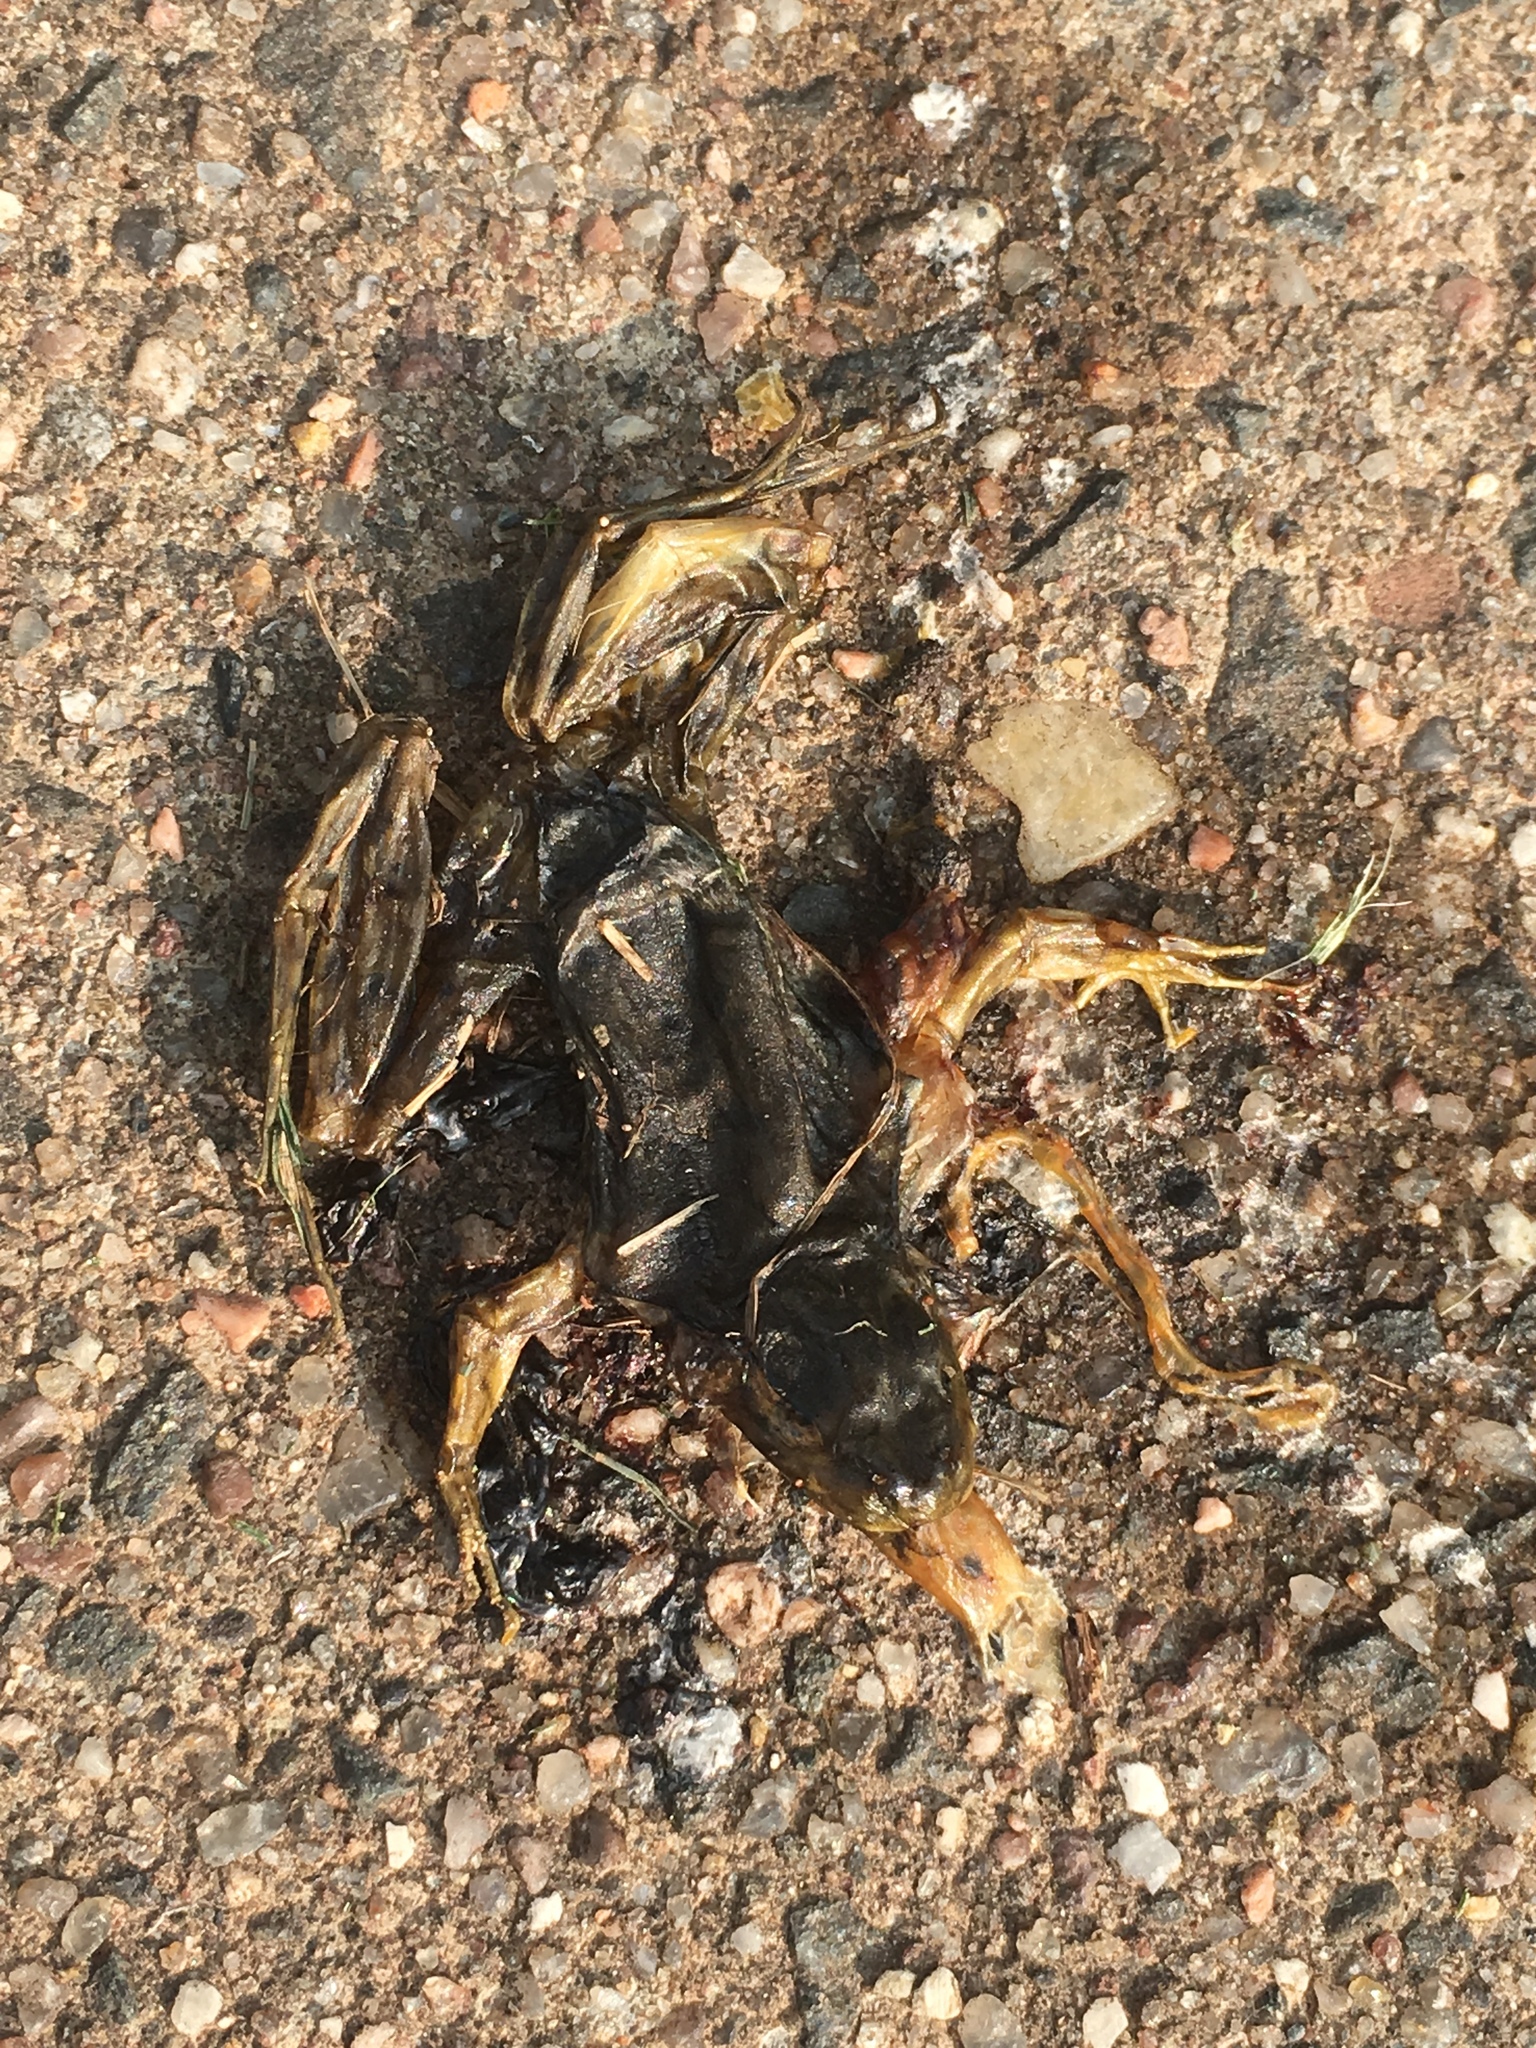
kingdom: Animalia
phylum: Chordata
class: Amphibia
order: Anura
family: Ranidae
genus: Lithobates
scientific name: Lithobates clamitans
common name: Green frog
